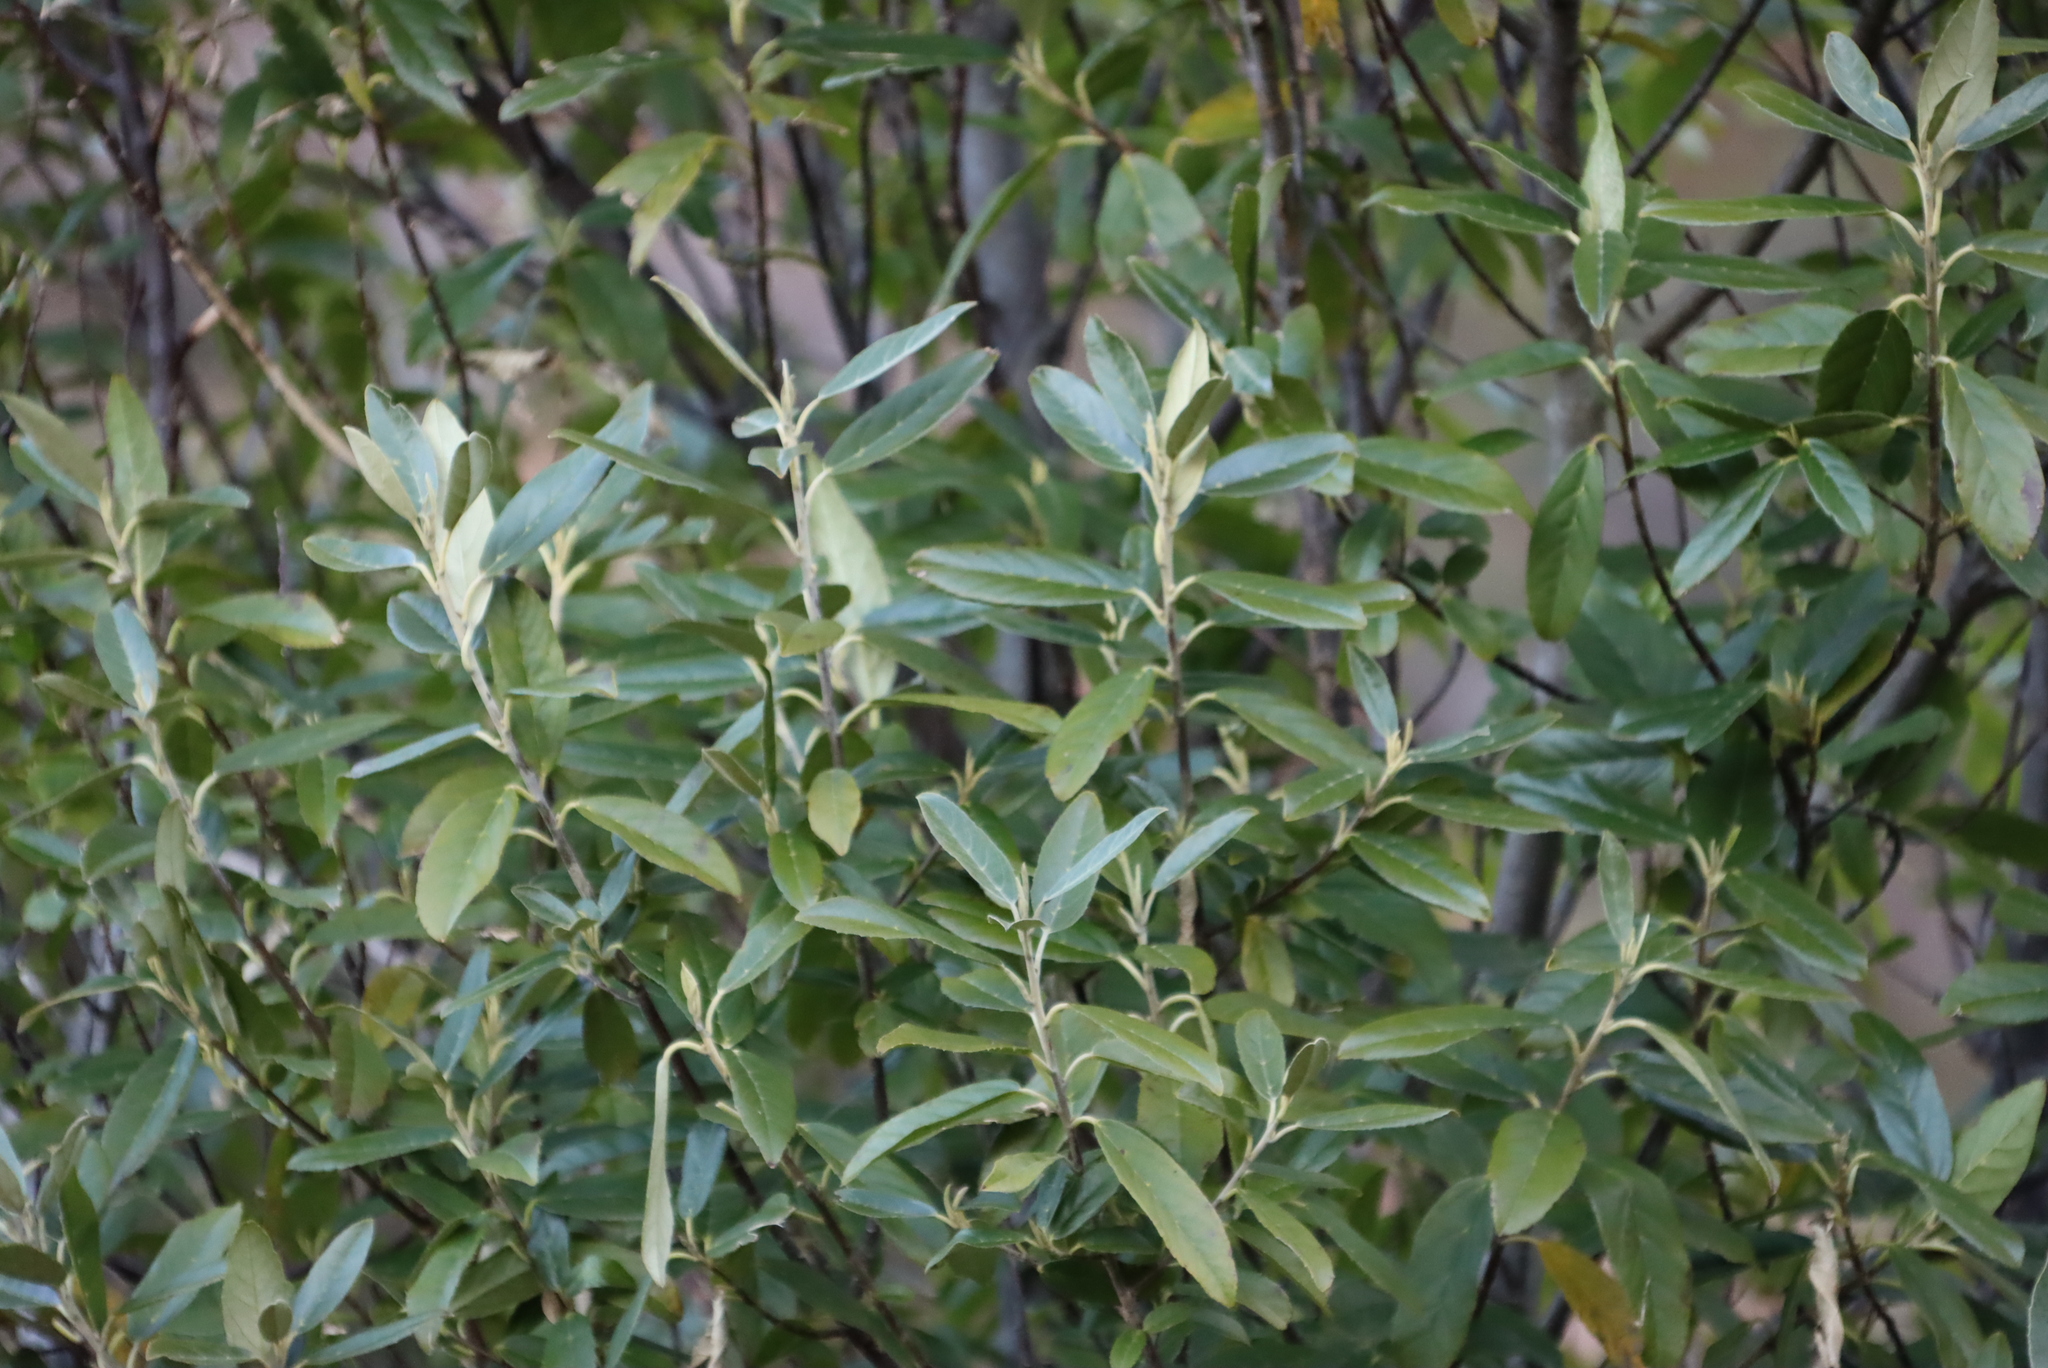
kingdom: Plantae
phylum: Tracheophyta
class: Magnoliopsida
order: Malpighiales
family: Achariaceae
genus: Kiggelaria
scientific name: Kiggelaria africana
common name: Wild peach
